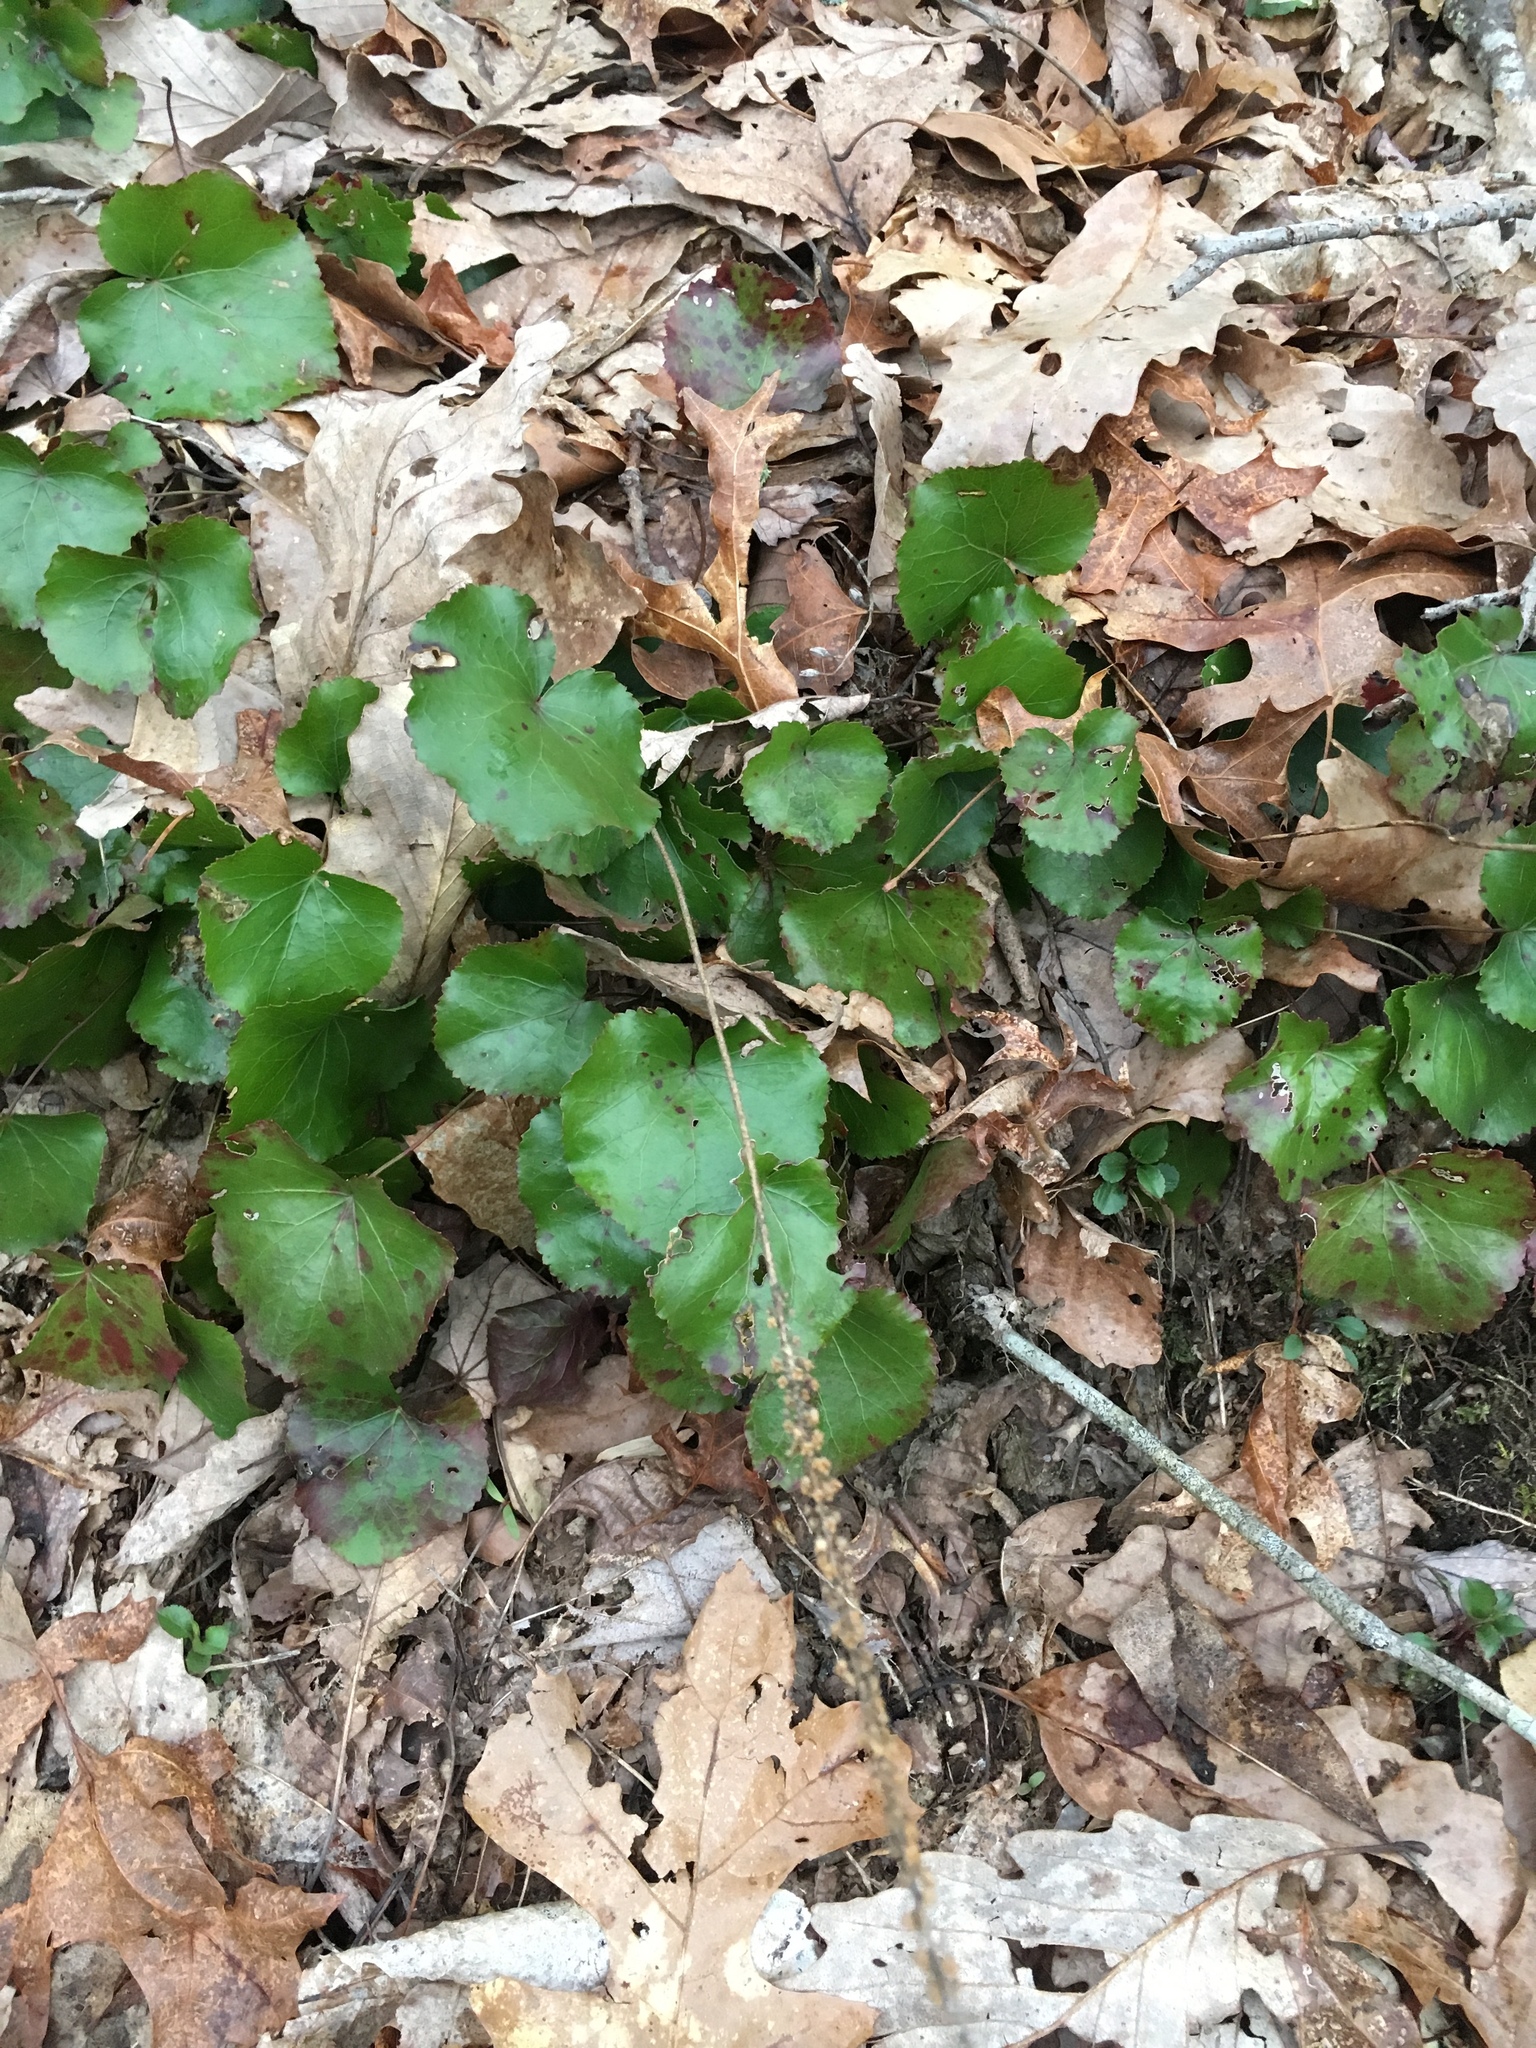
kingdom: Plantae
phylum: Tracheophyta
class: Magnoliopsida
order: Ericales
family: Diapensiaceae
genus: Galax
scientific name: Galax urceolata
